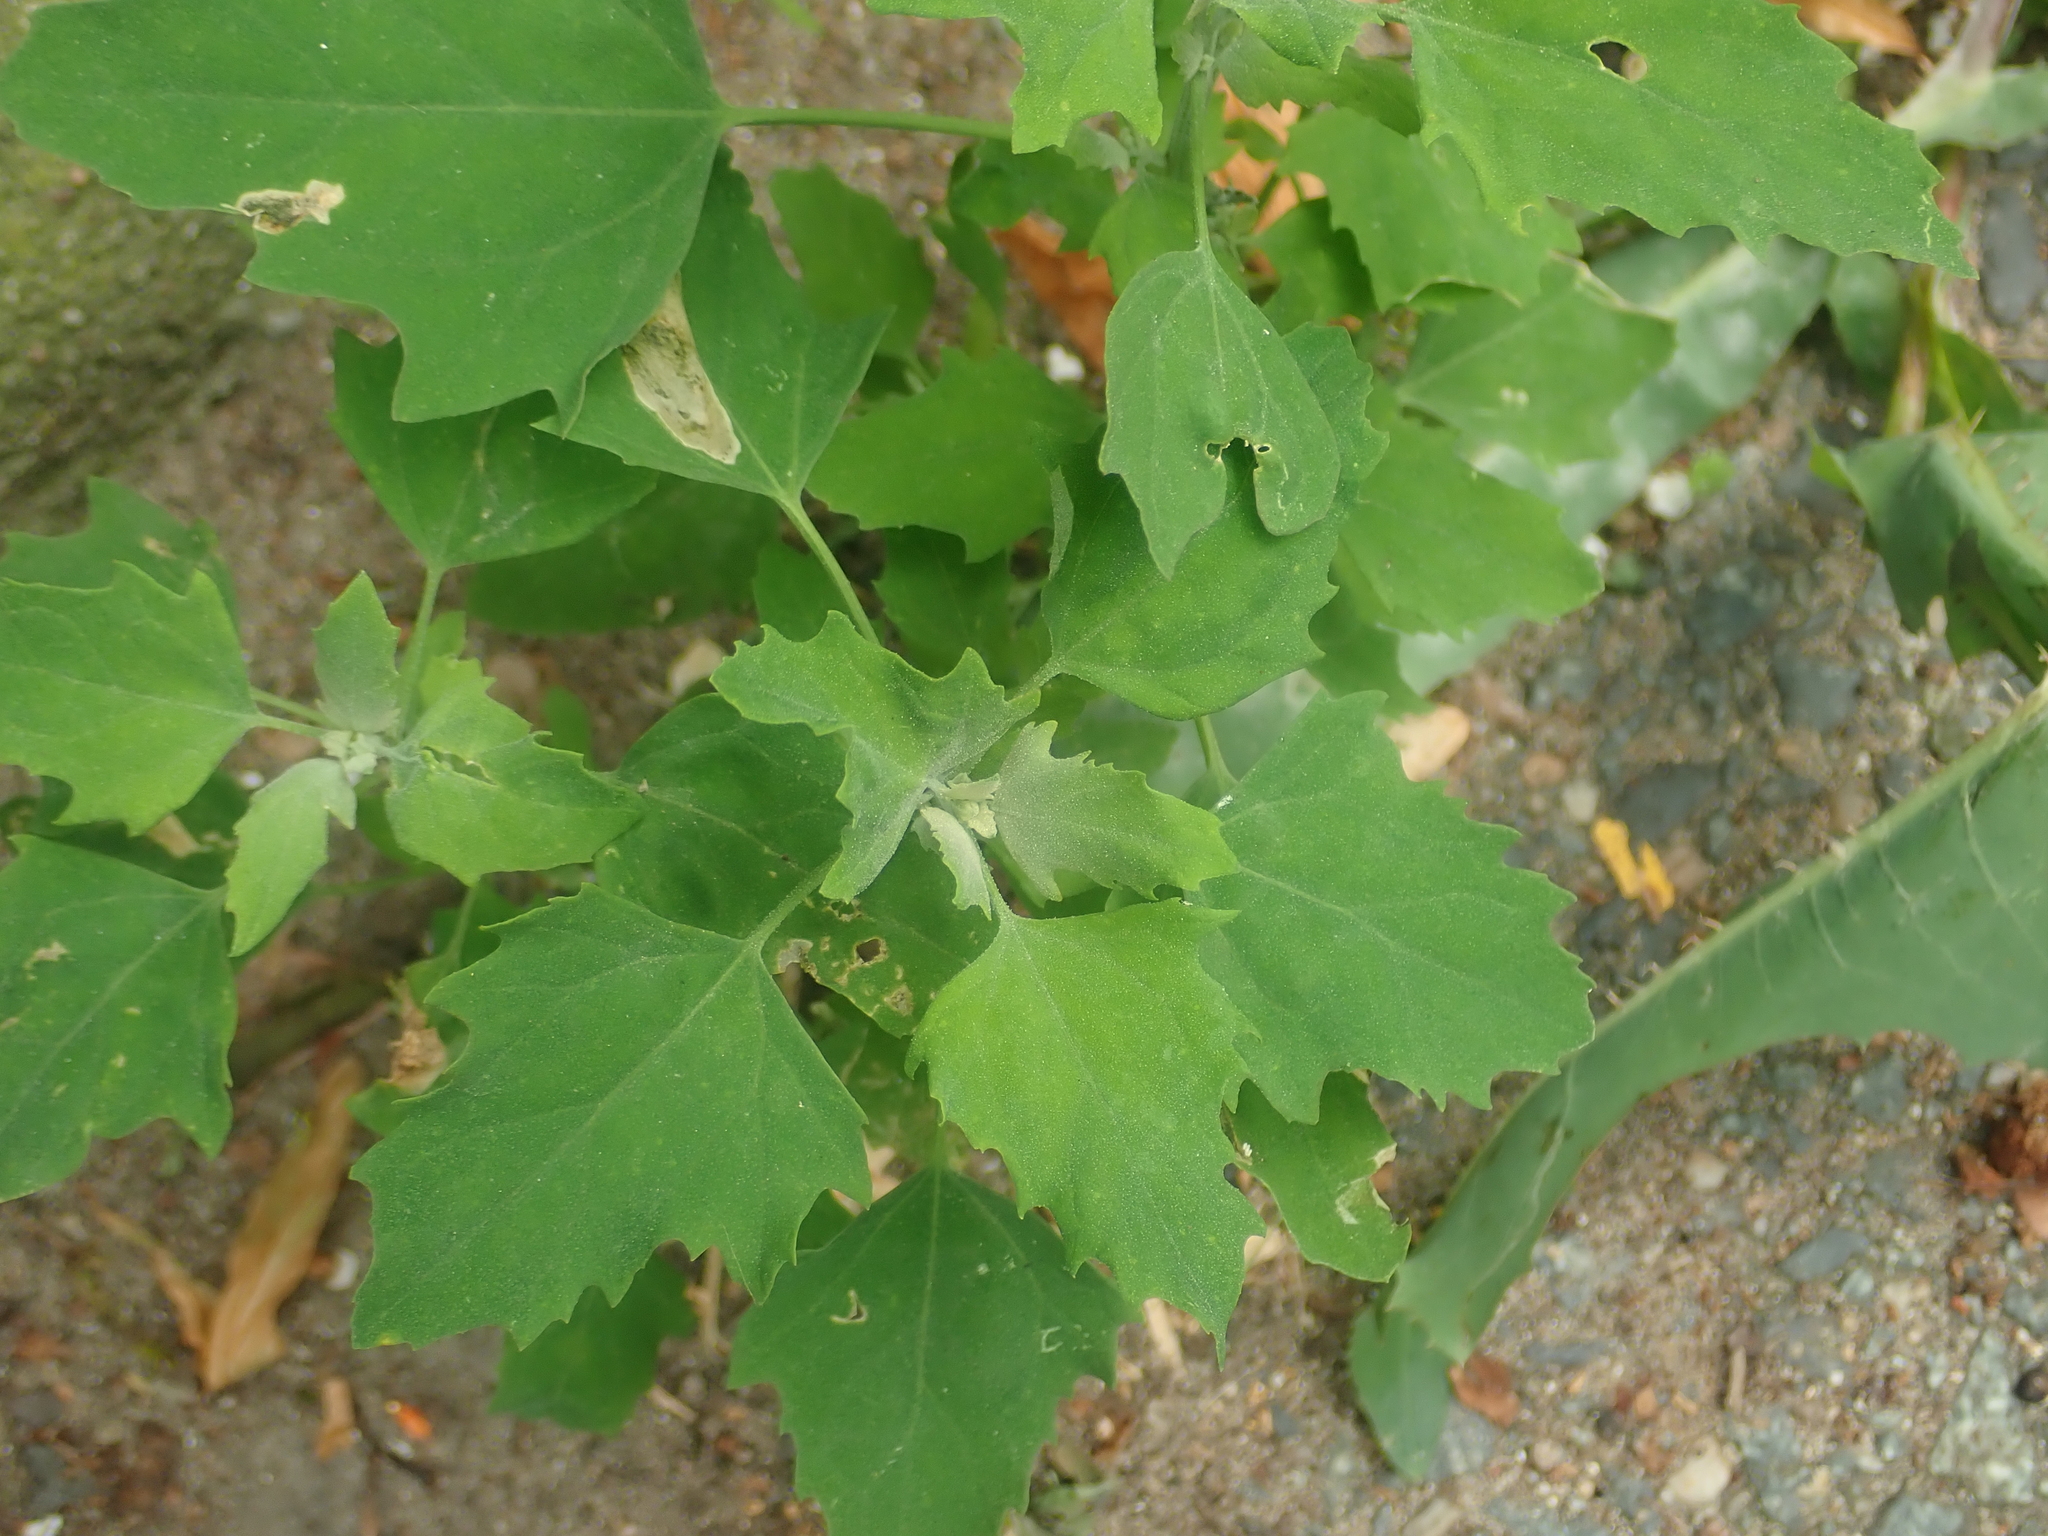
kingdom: Plantae
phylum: Tracheophyta
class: Magnoliopsida
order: Caryophyllales
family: Amaranthaceae
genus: Chenopodium
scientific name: Chenopodium album
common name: Fat-hen
